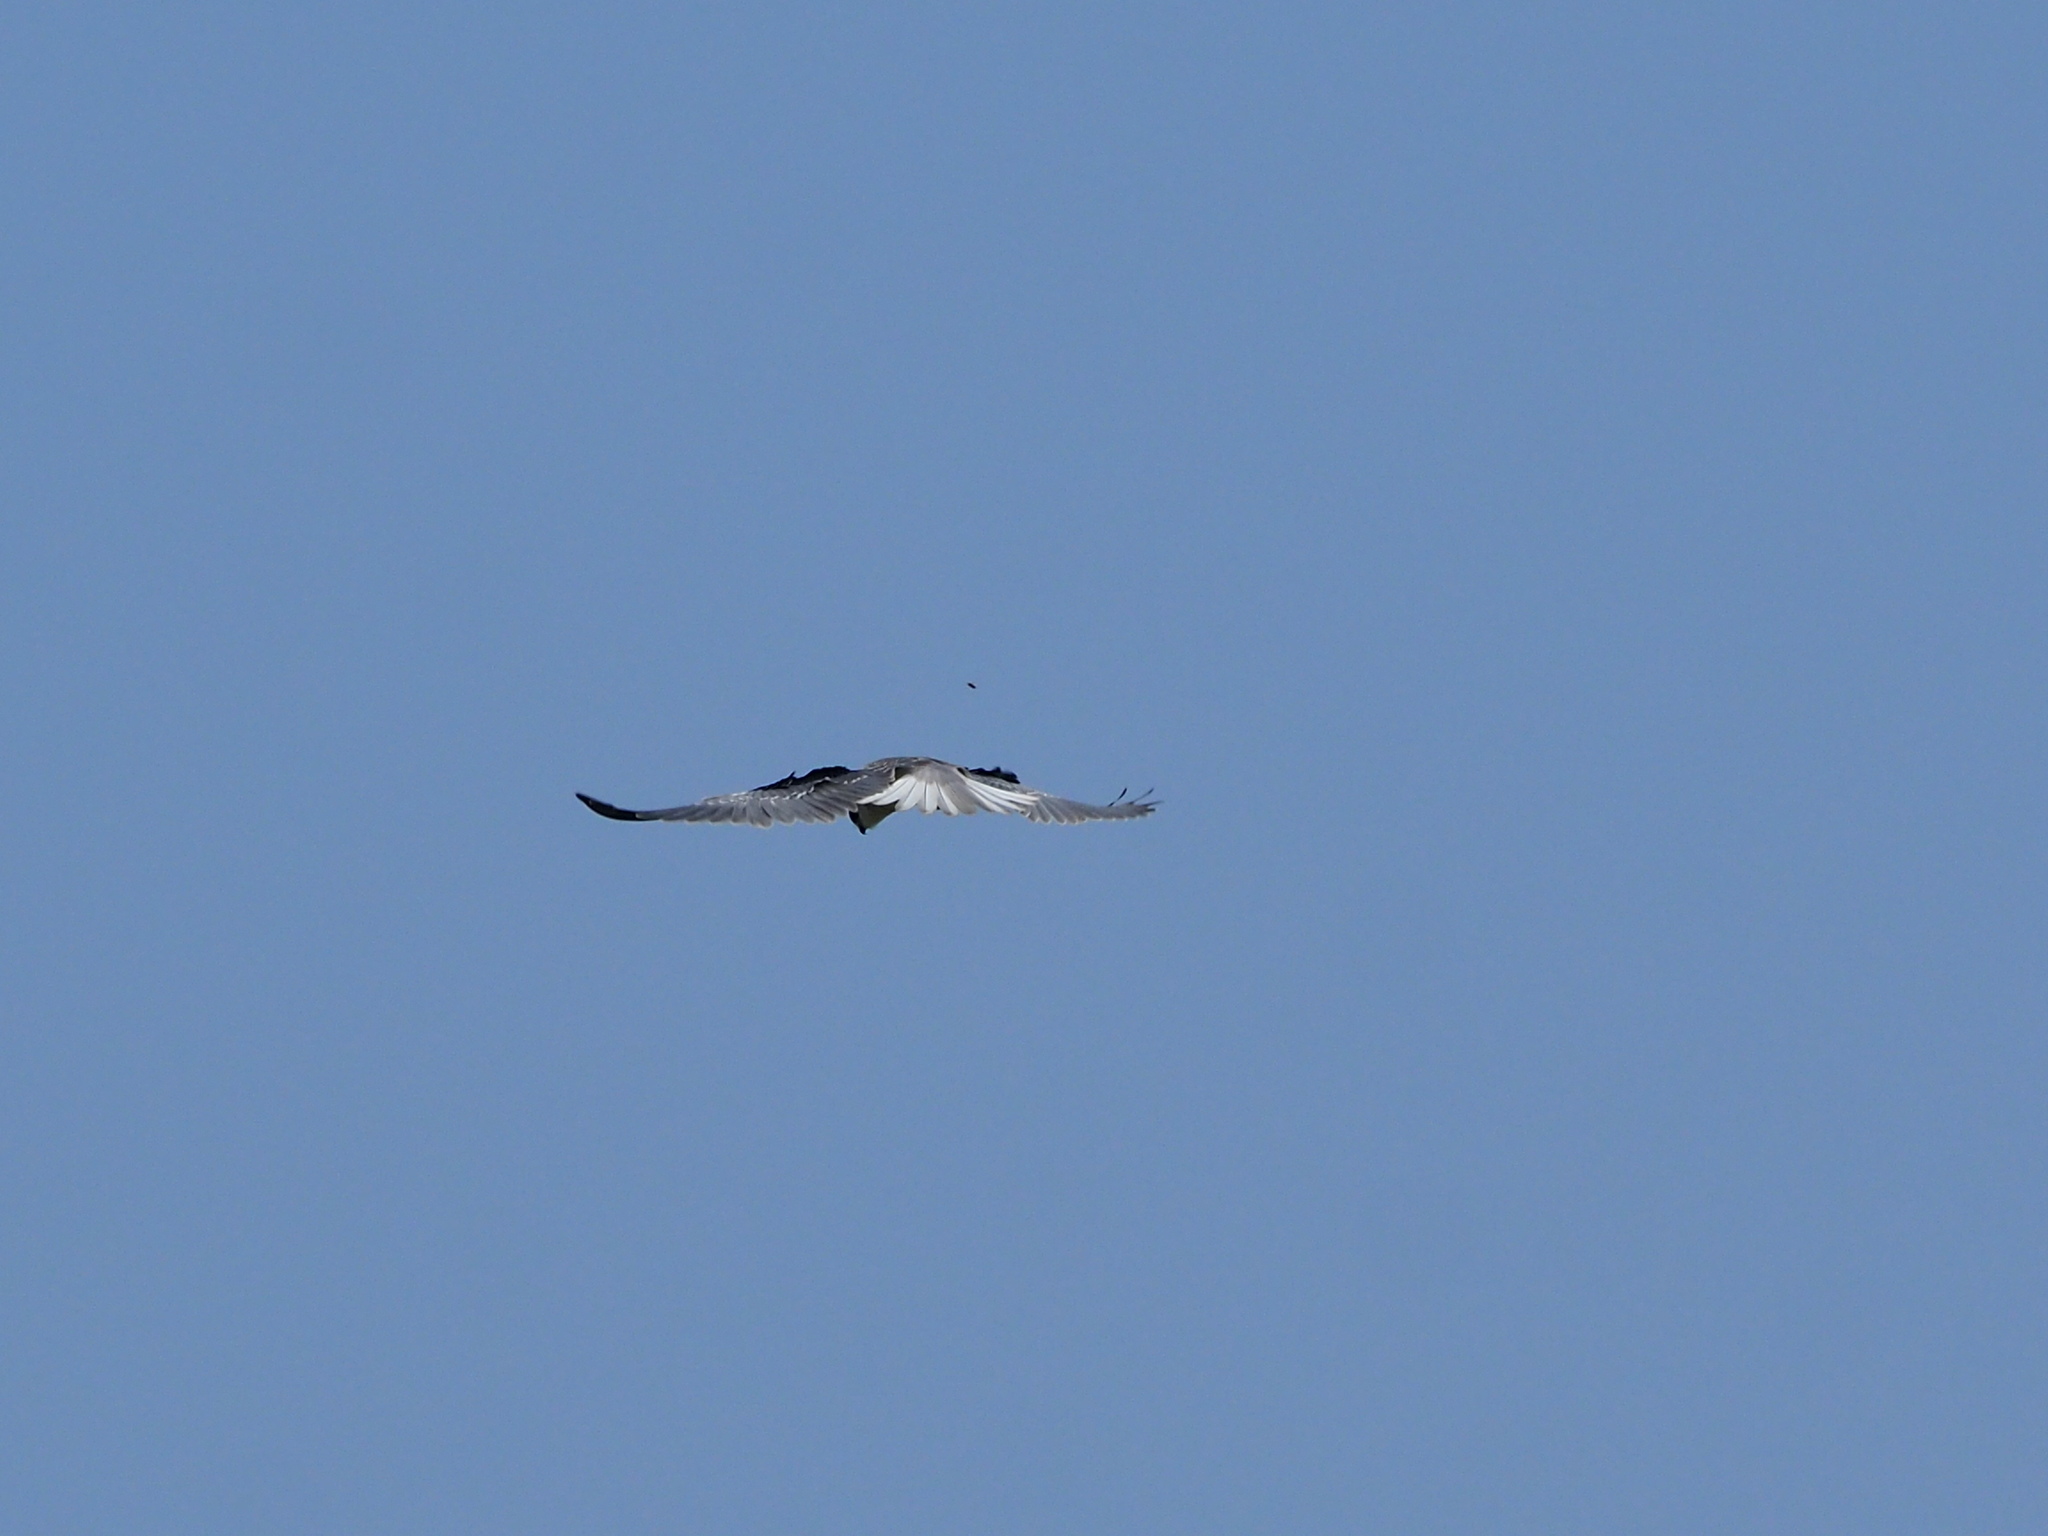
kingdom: Animalia
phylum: Chordata
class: Aves
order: Accipitriformes
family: Accipitridae
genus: Elanus
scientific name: Elanus caeruleus
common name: Black-winged kite
